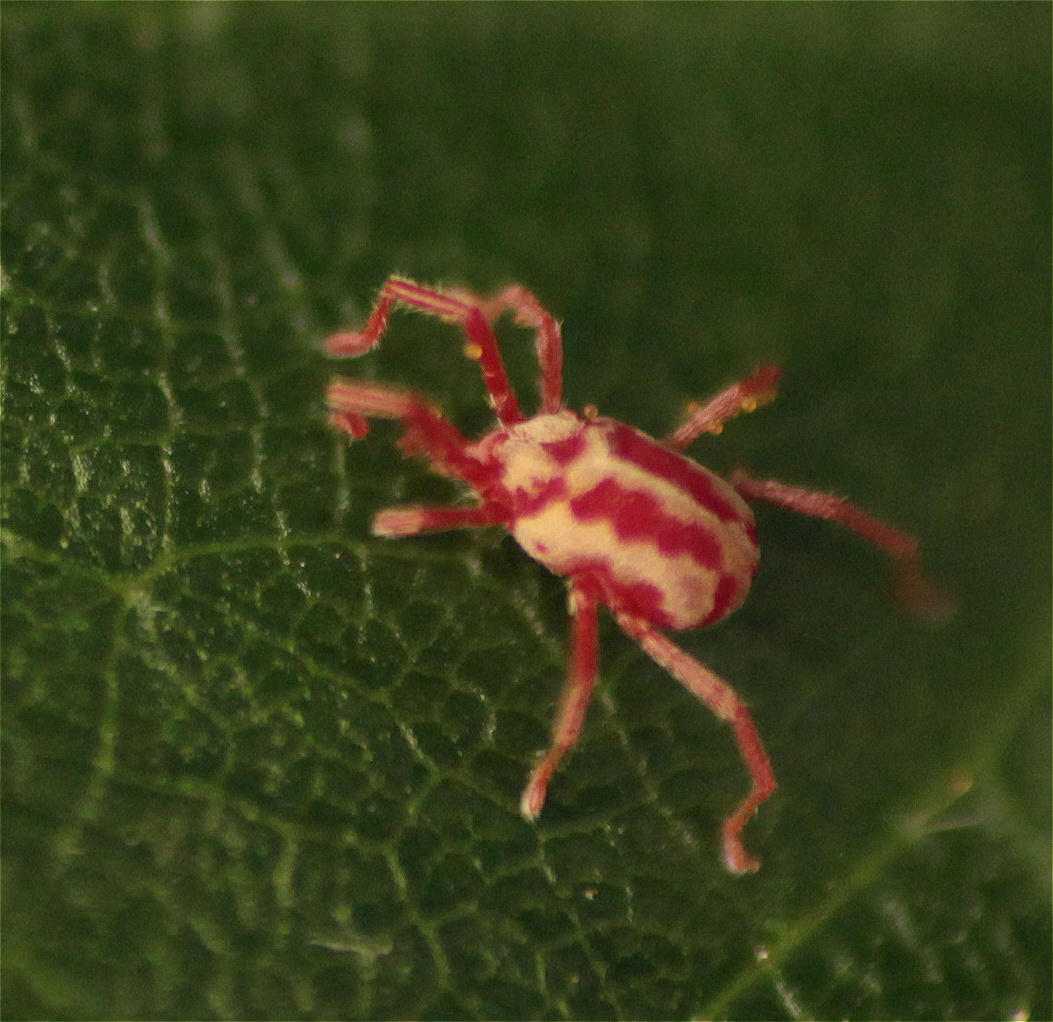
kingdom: Animalia
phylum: Arthropoda
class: Arachnida
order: Trombidiformes
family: Erythraeidae
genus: Balaustium
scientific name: Balaustium leanderi
